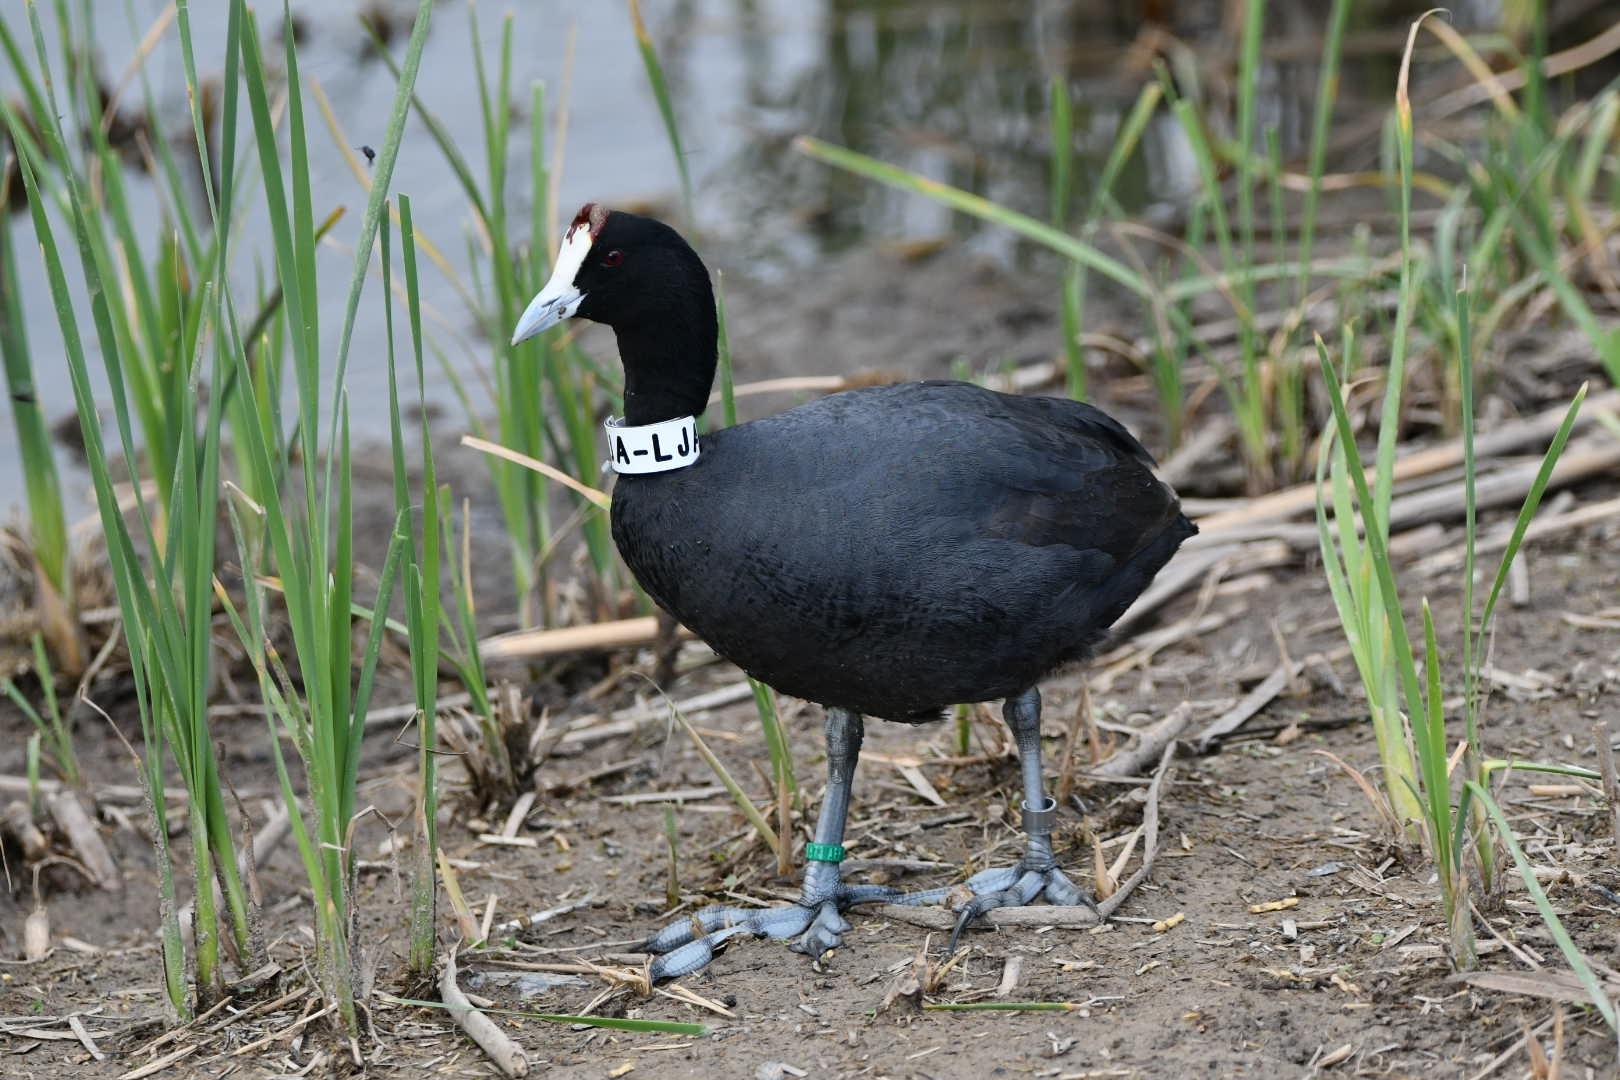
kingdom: Animalia
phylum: Chordata
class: Aves
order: Gruiformes
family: Rallidae
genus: Fulica
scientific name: Fulica cristata
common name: Red-knobbed coot
